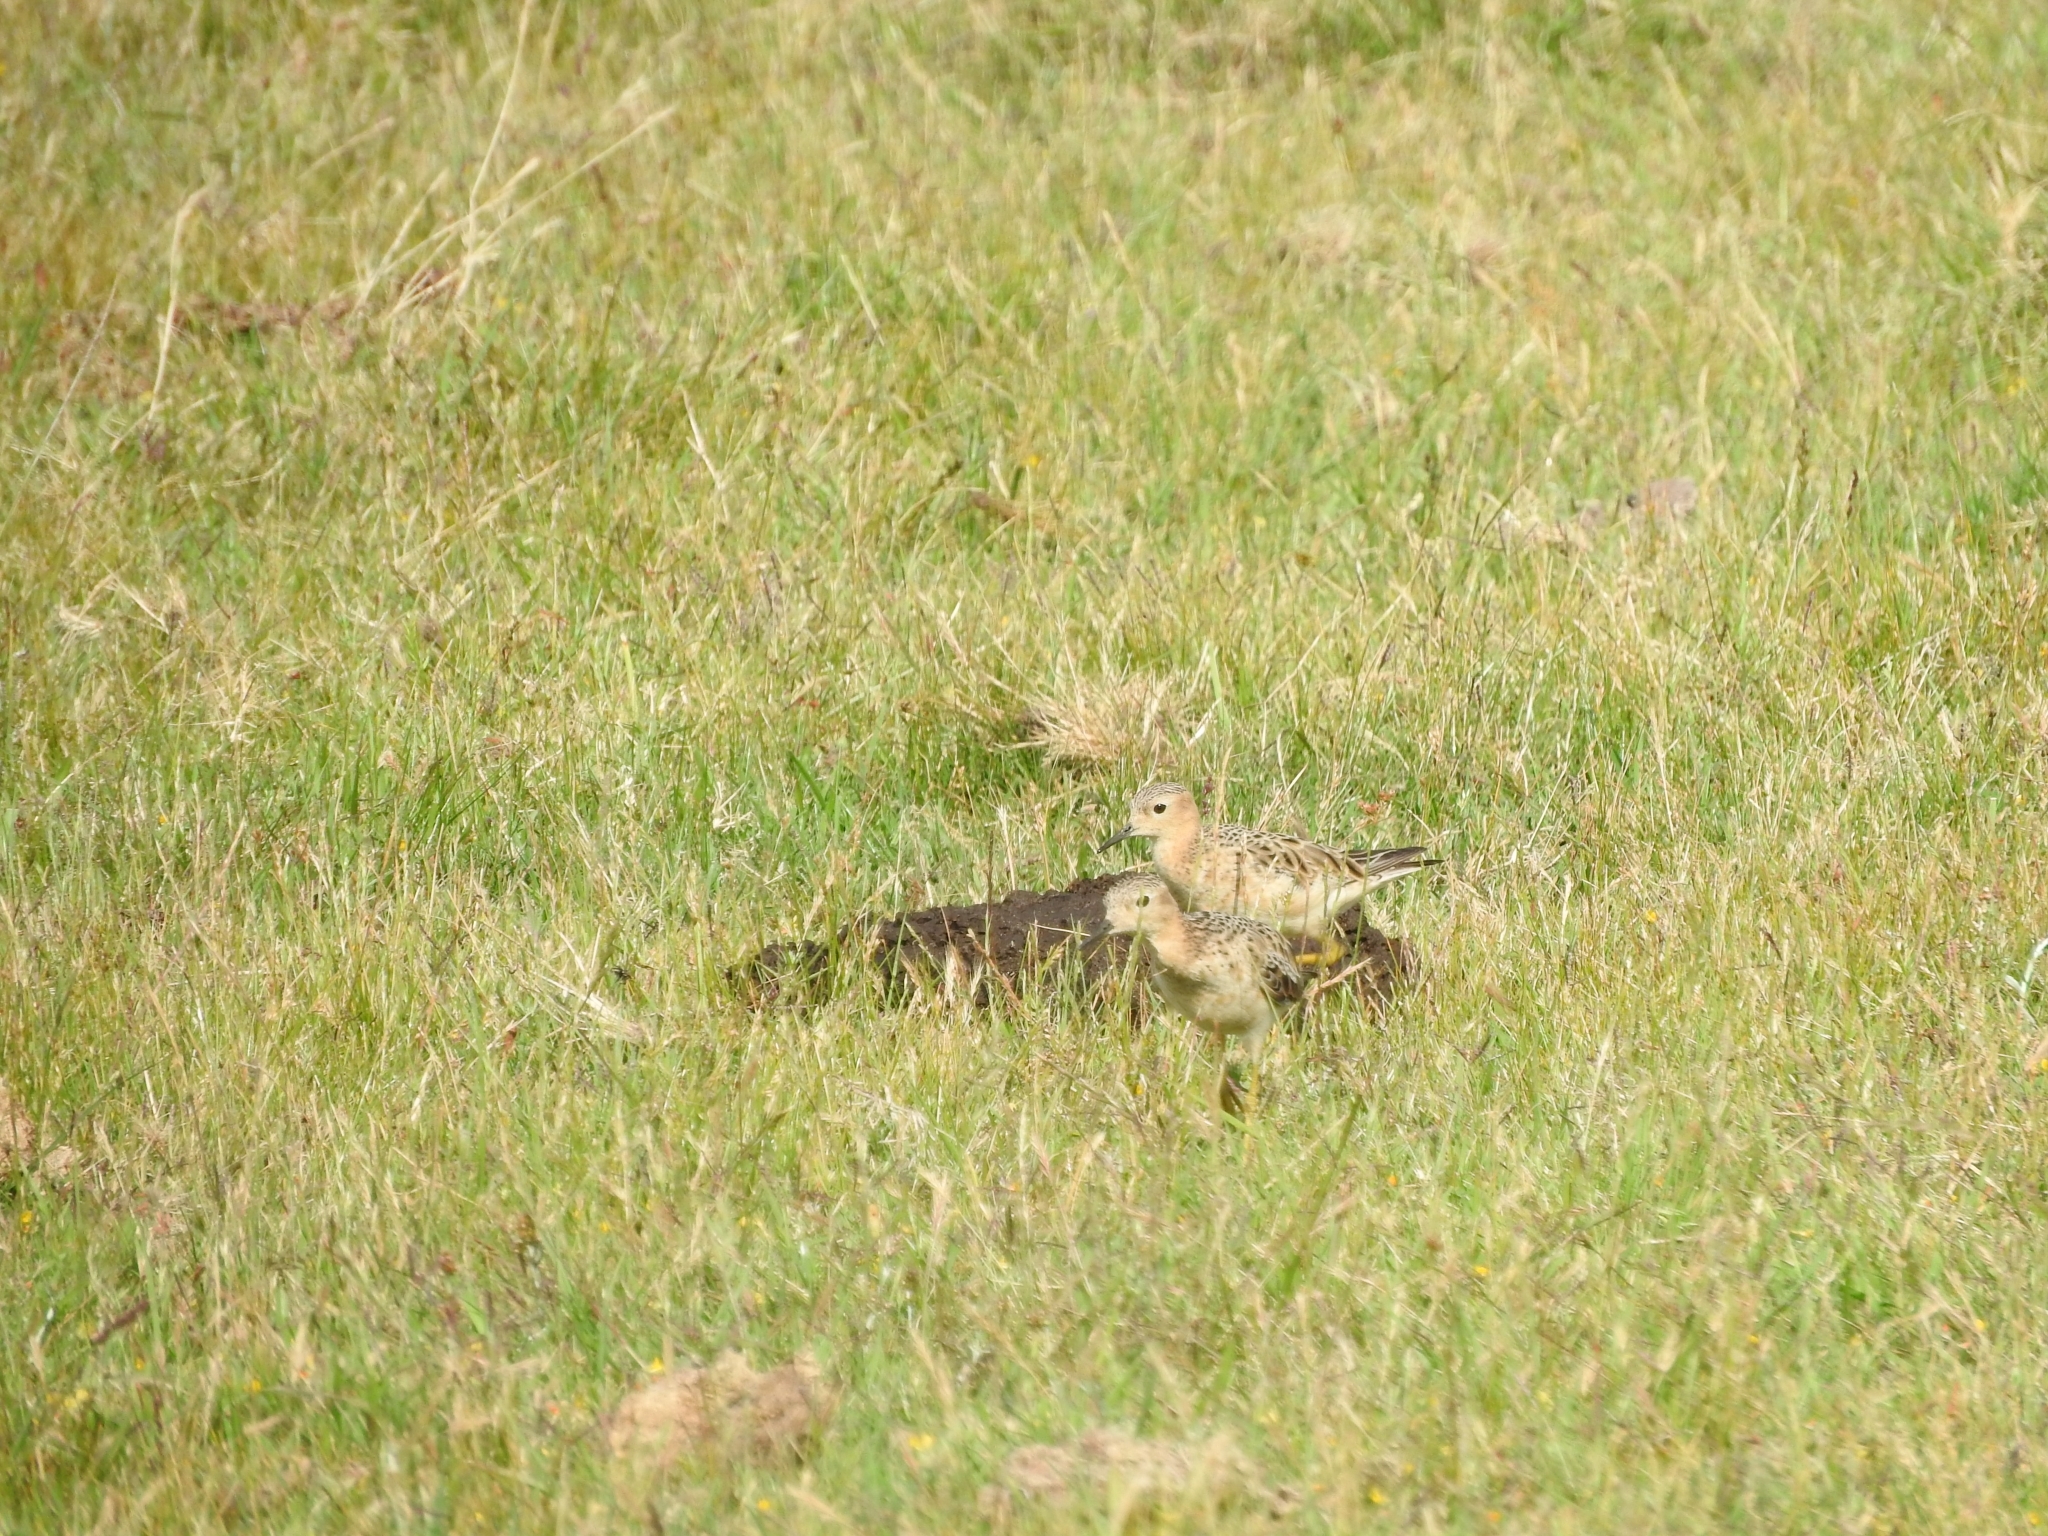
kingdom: Animalia
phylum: Chordata
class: Aves
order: Charadriiformes
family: Scolopacidae
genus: Calidris
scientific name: Calidris subruficollis
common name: Buff-breasted sandpiper
